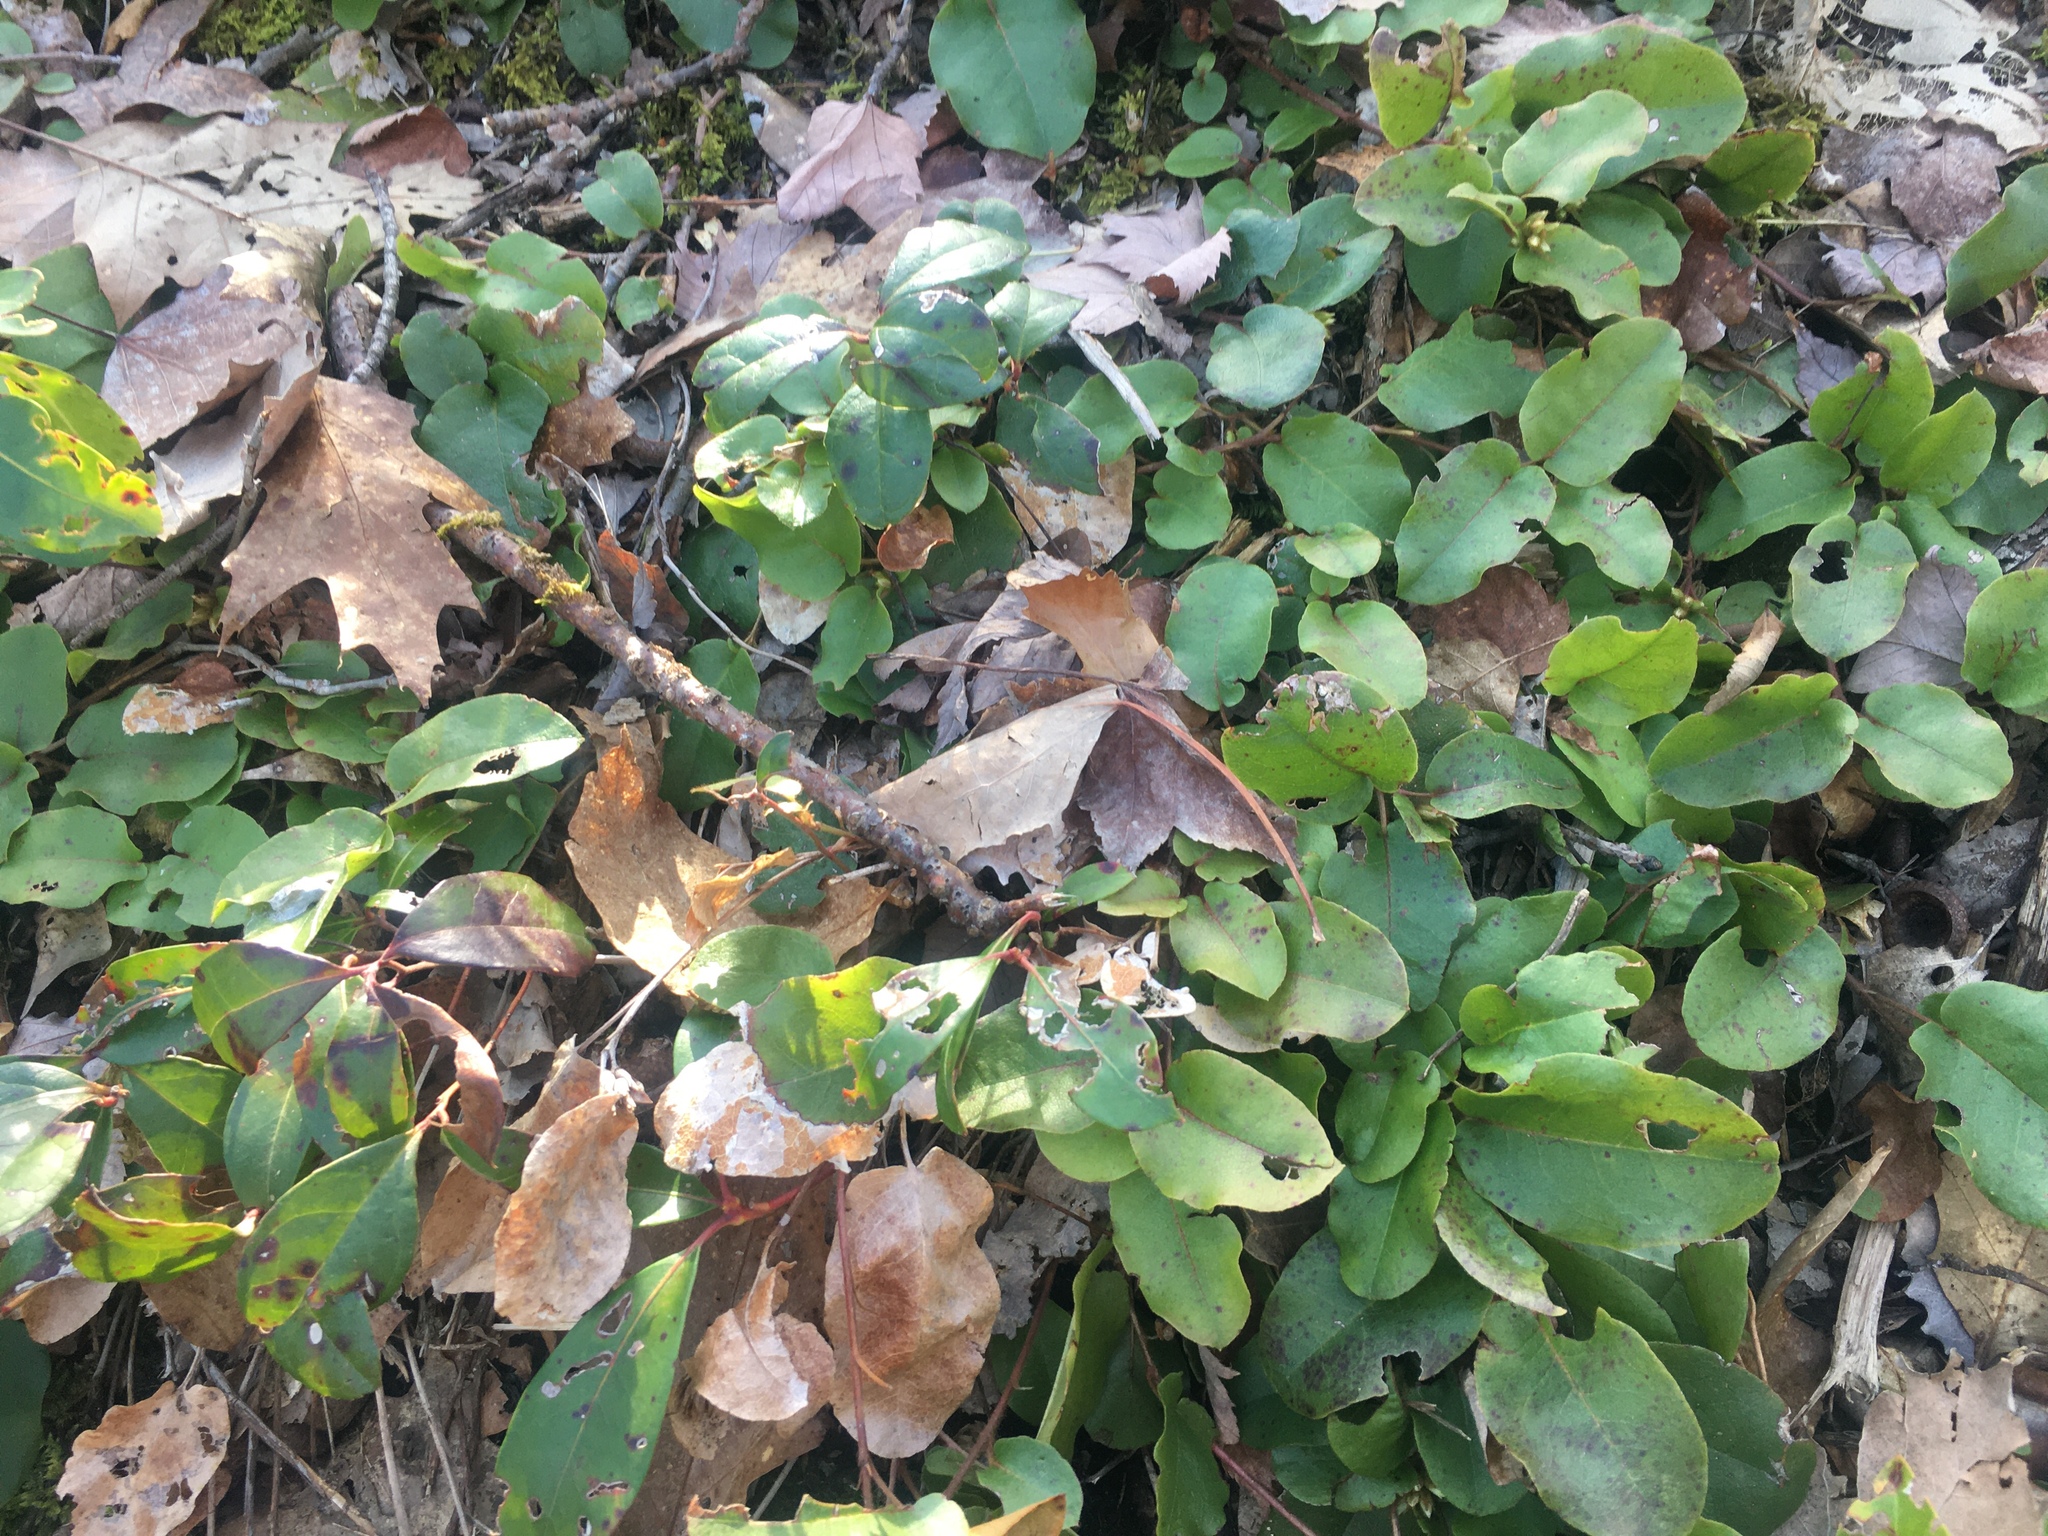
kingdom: Plantae
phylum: Tracheophyta
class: Magnoliopsida
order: Ericales
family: Ericaceae
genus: Epigaea
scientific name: Epigaea repens
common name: Gravelroot
